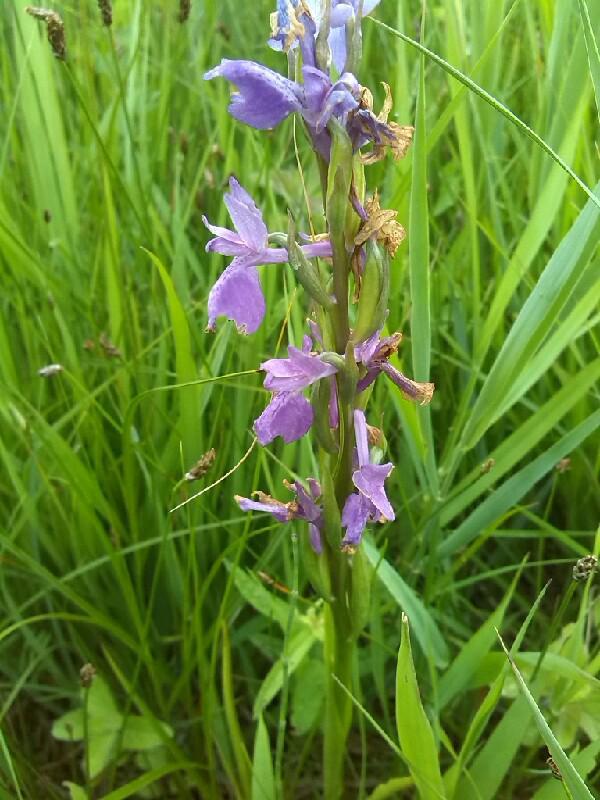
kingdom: Plantae
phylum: Tracheophyta
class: Liliopsida
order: Asparagales
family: Orchidaceae
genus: Anacamptis
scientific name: Anacamptis palustris
